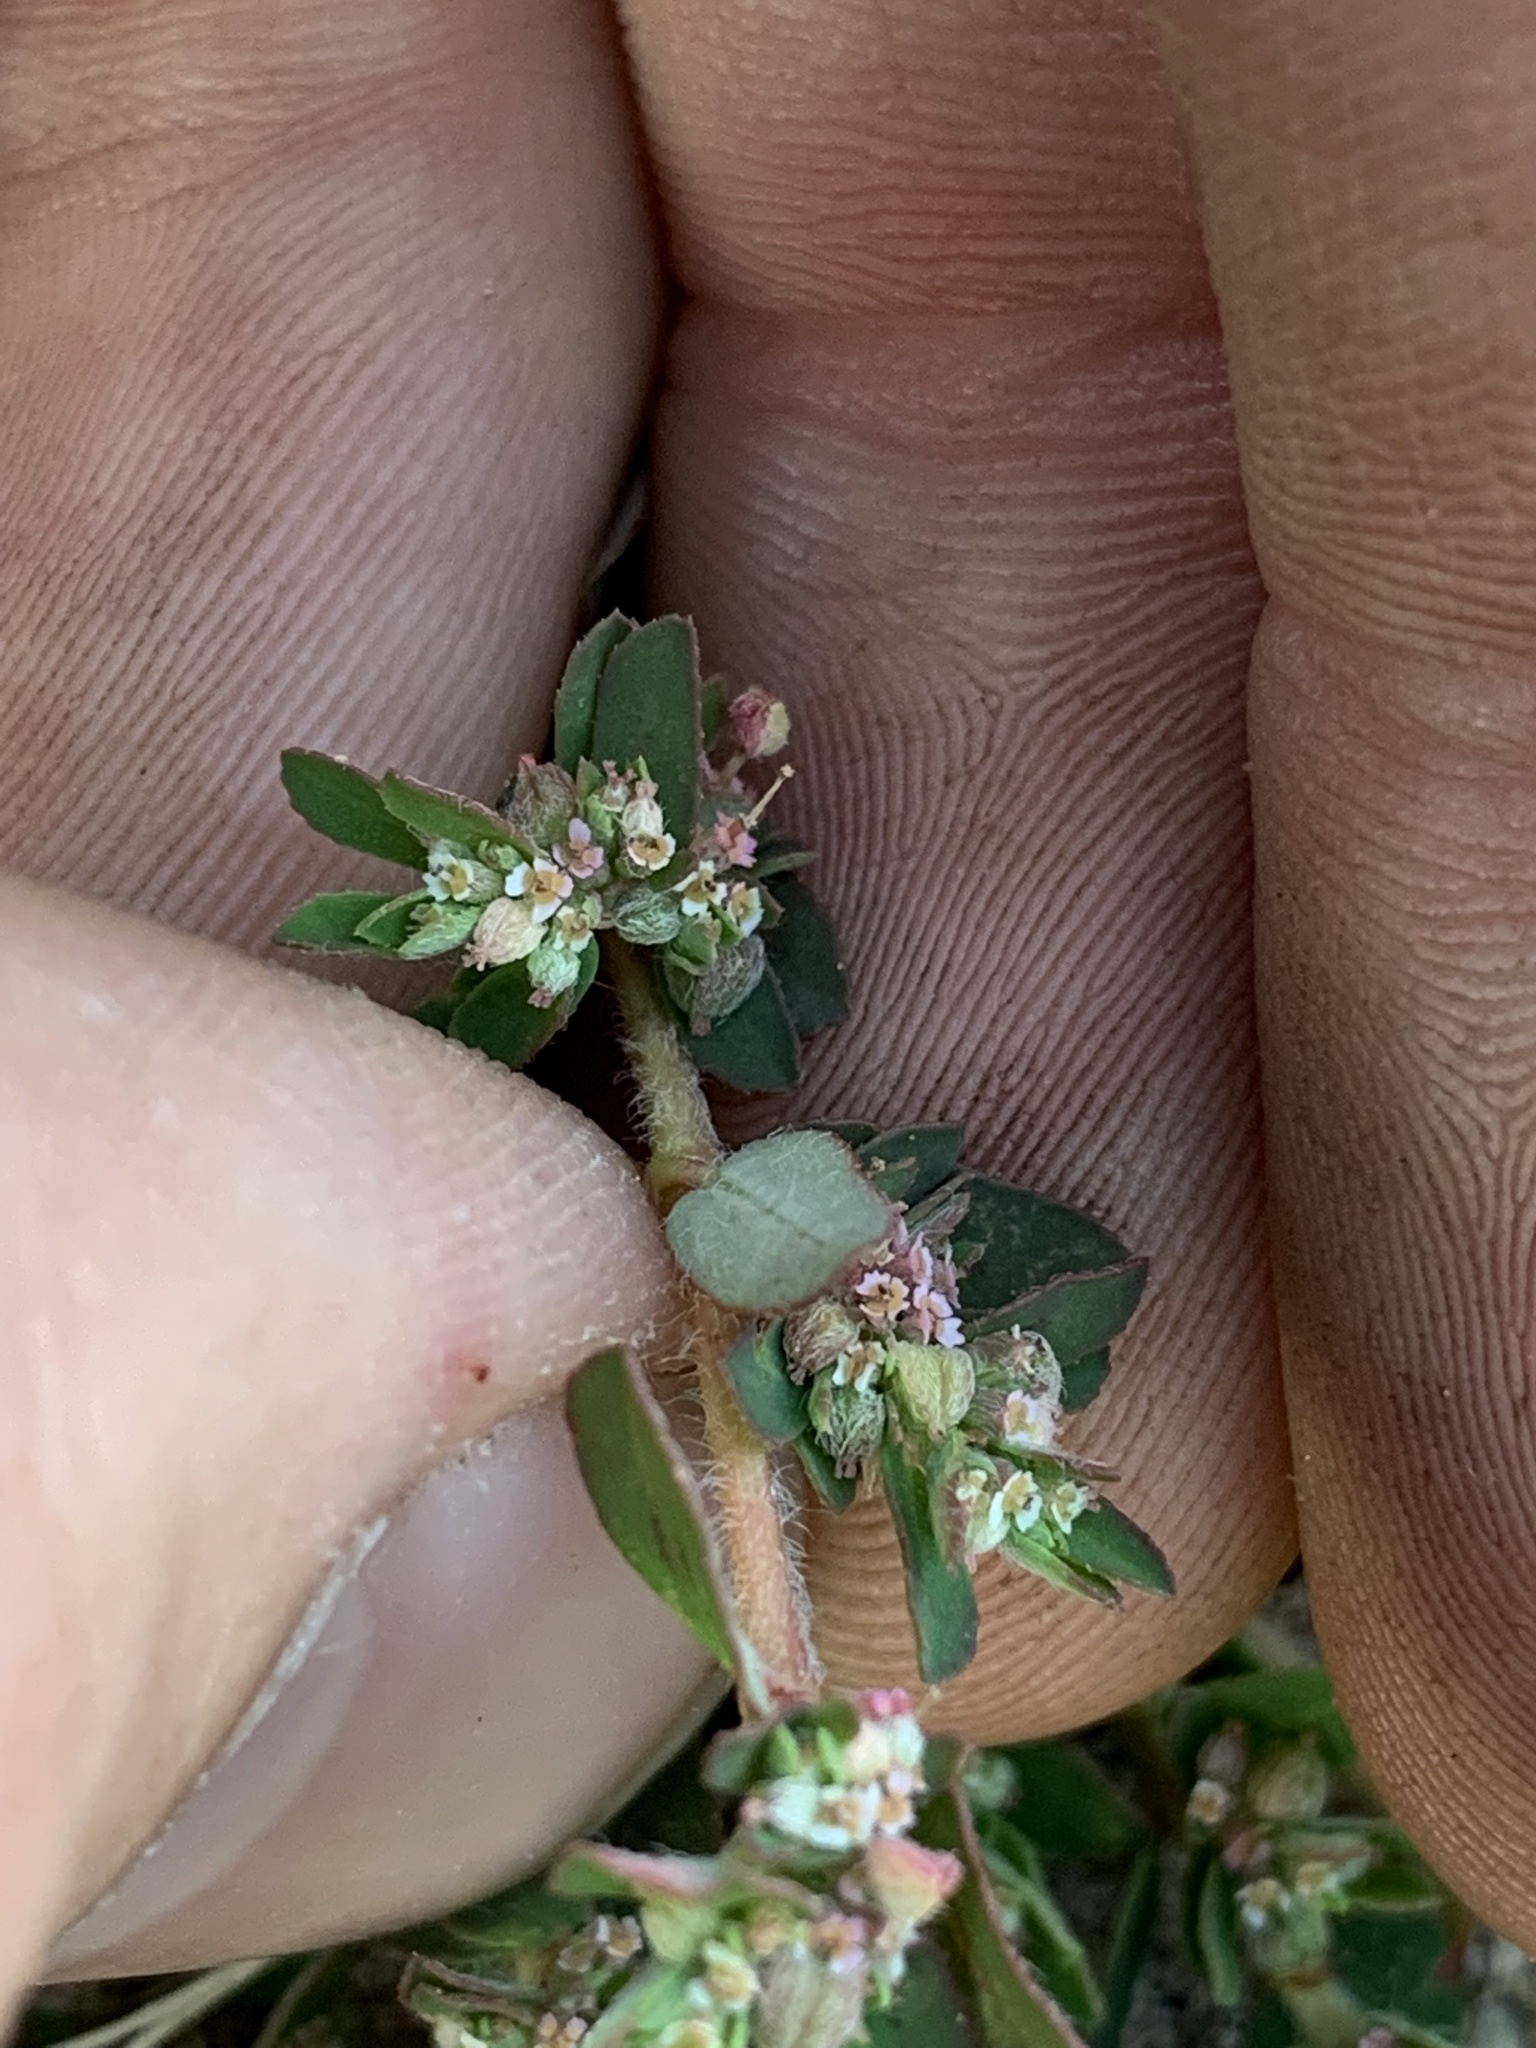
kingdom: Plantae
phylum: Tracheophyta
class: Magnoliopsida
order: Malpighiales
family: Euphorbiaceae
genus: Euphorbia
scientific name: Euphorbia maculata
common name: Spotted spurge
